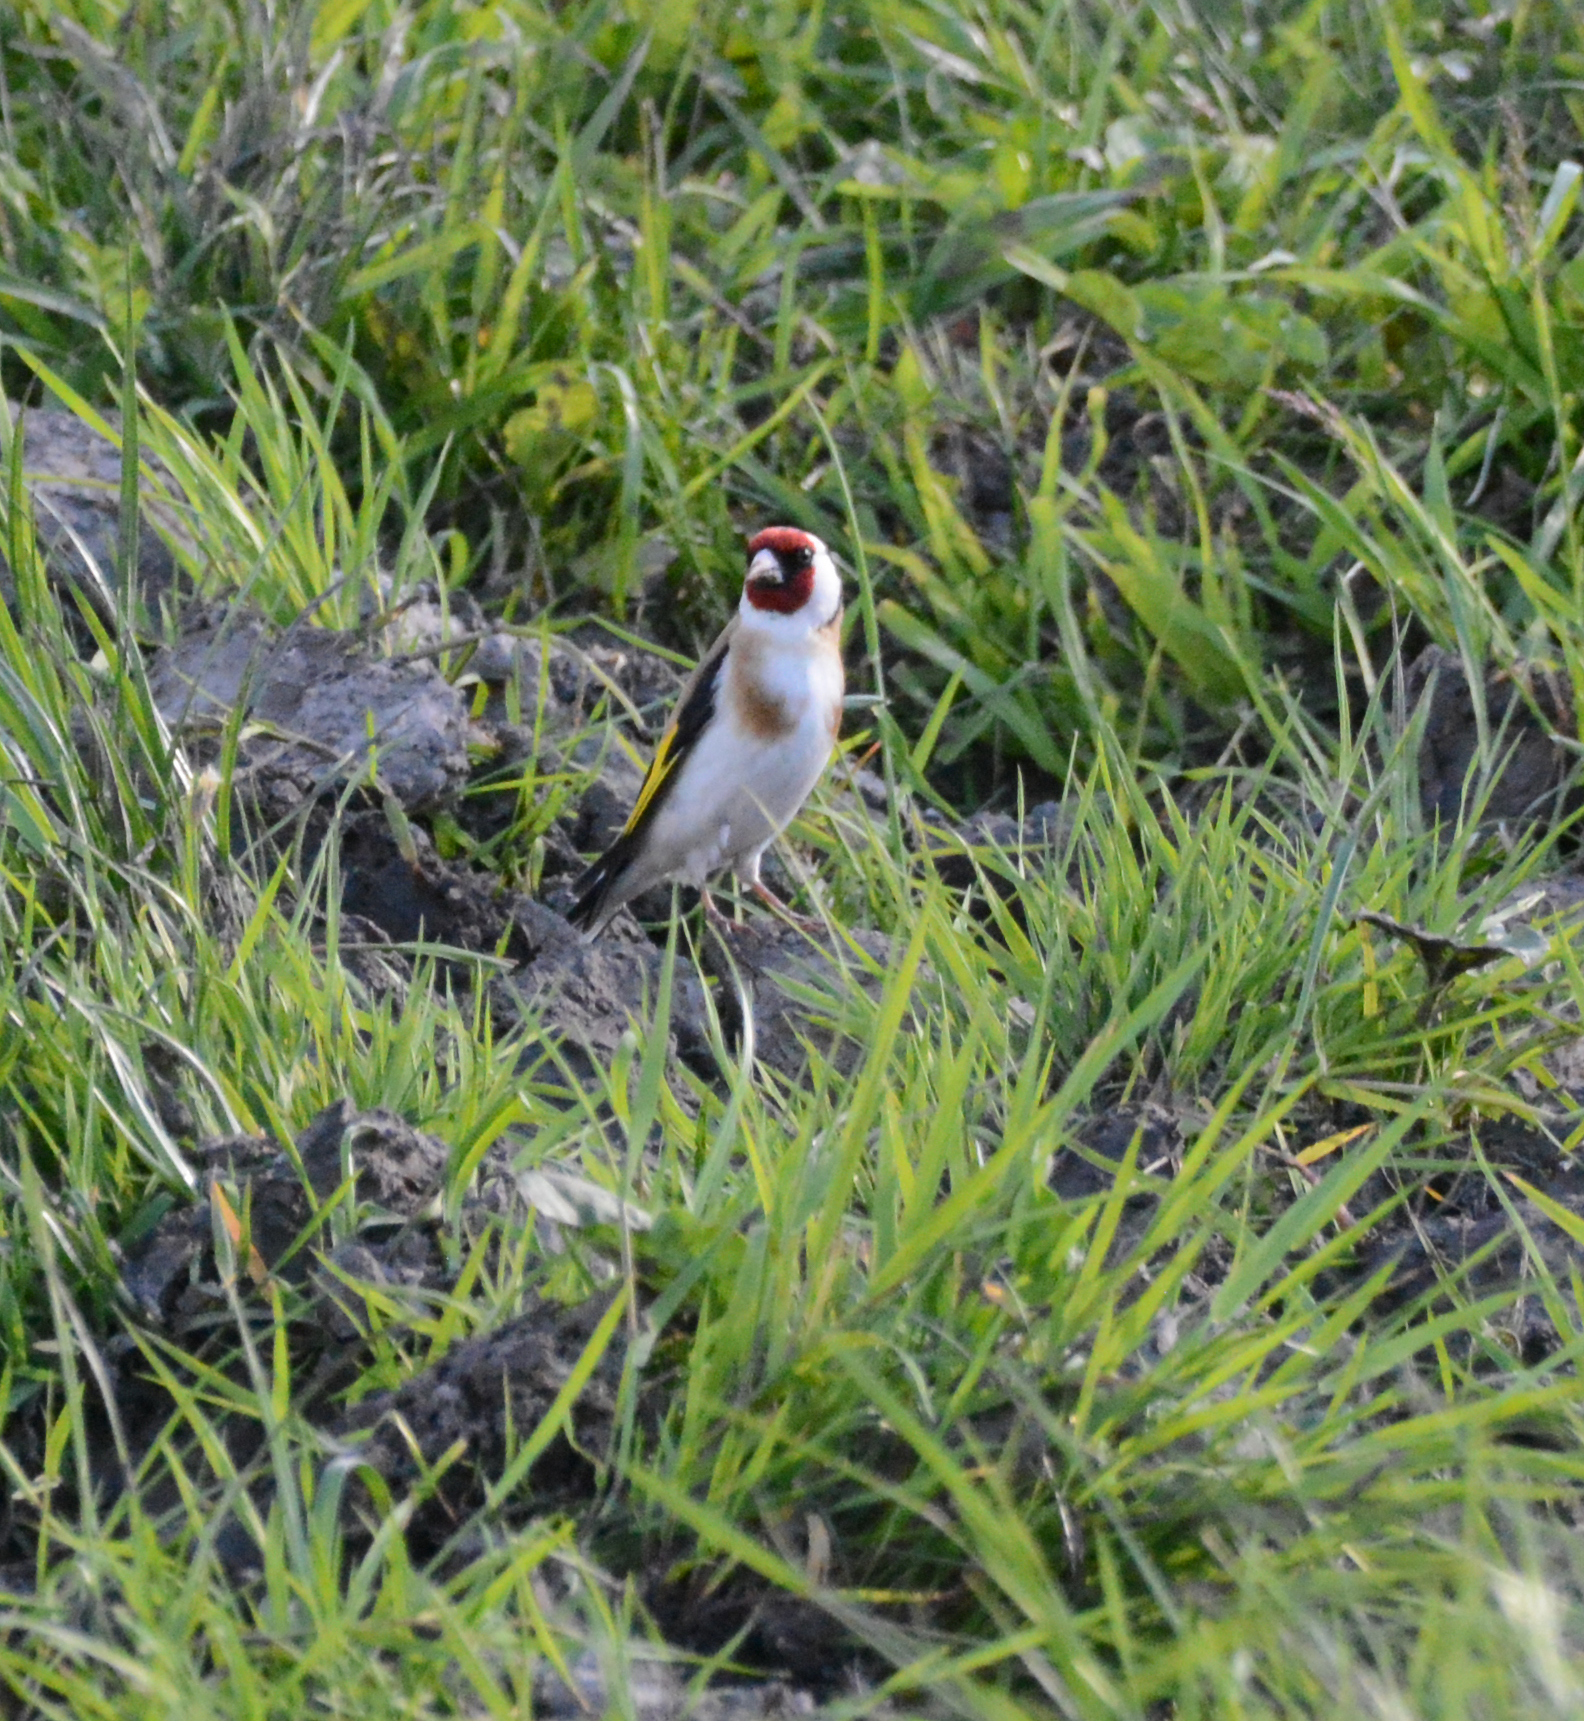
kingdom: Animalia
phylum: Chordata
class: Aves
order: Passeriformes
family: Fringillidae
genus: Carduelis
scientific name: Carduelis carduelis
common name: European goldfinch
